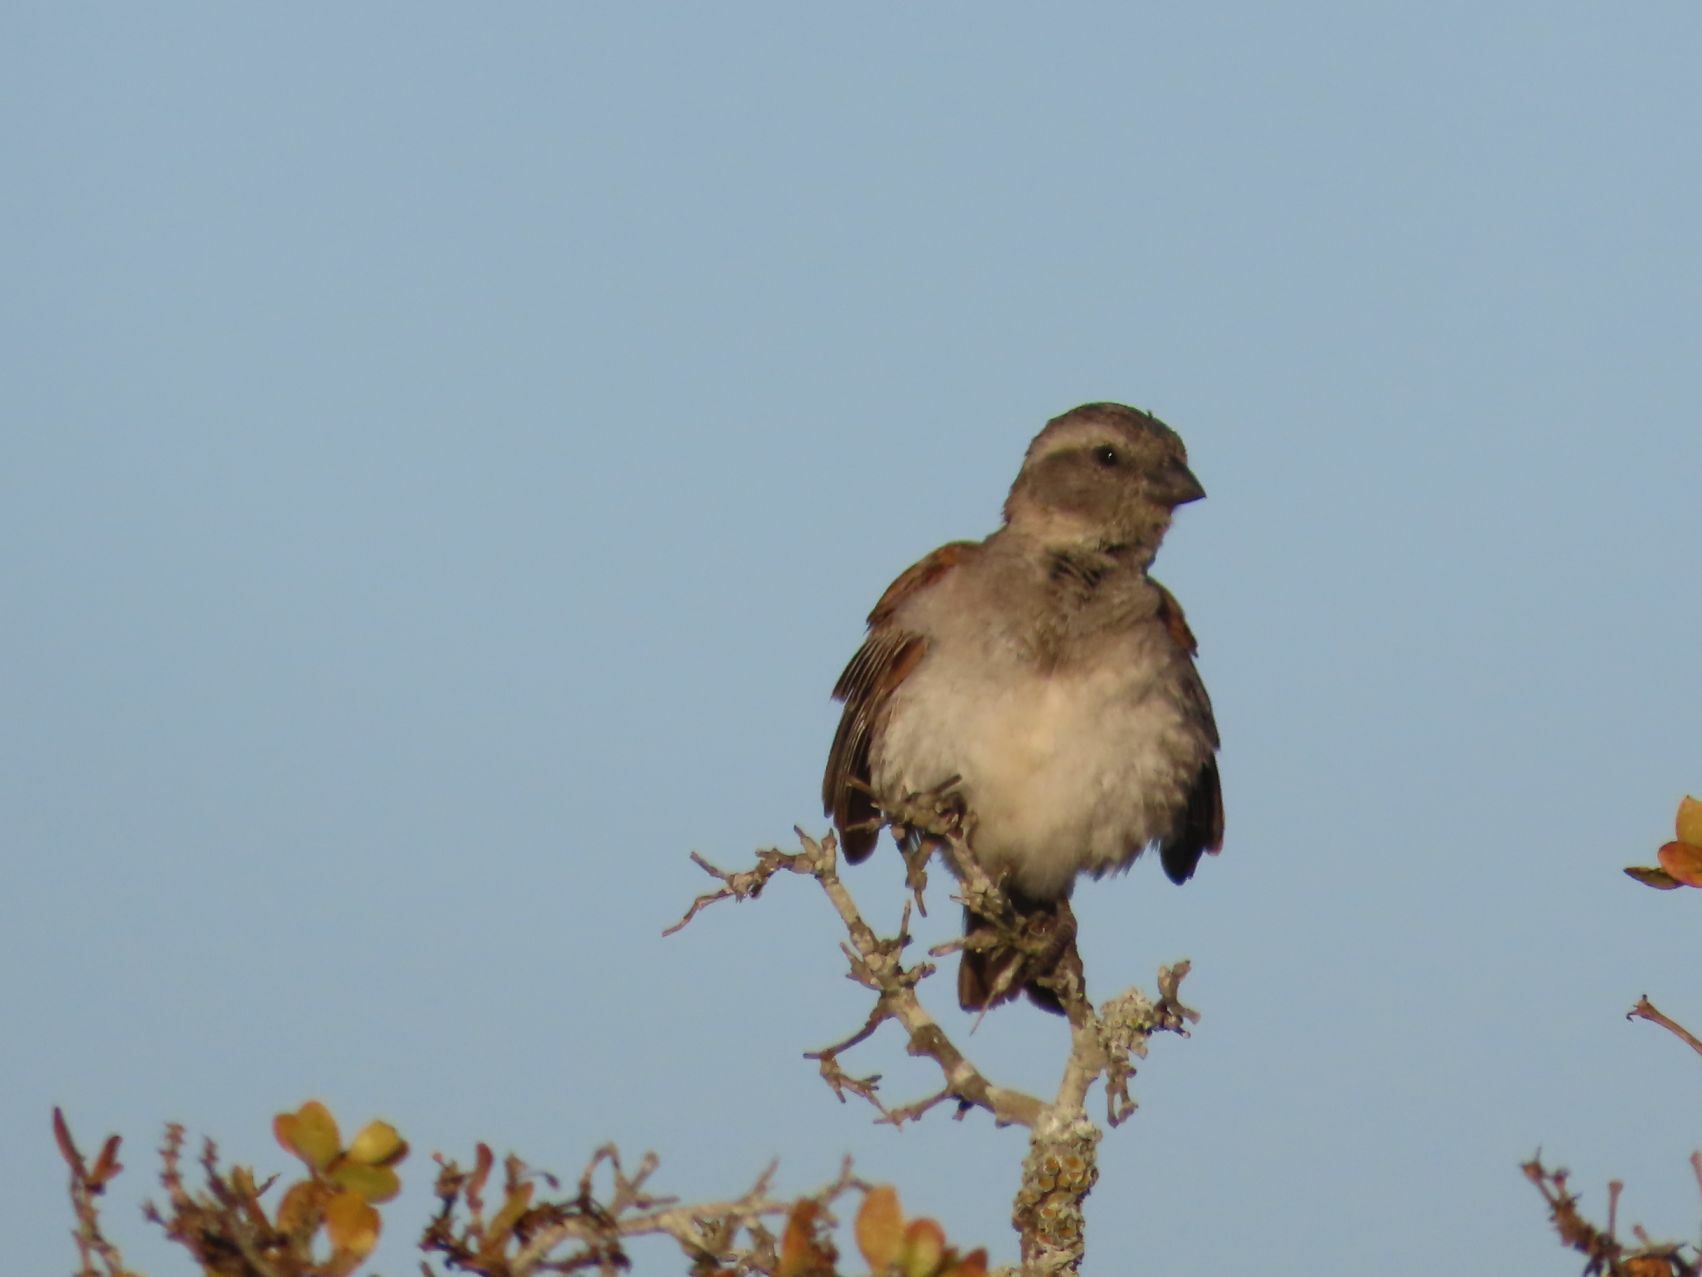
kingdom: Animalia
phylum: Chordata
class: Aves
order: Passeriformes
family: Passeridae
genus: Passer
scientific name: Passer melanurus
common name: Cape sparrow
